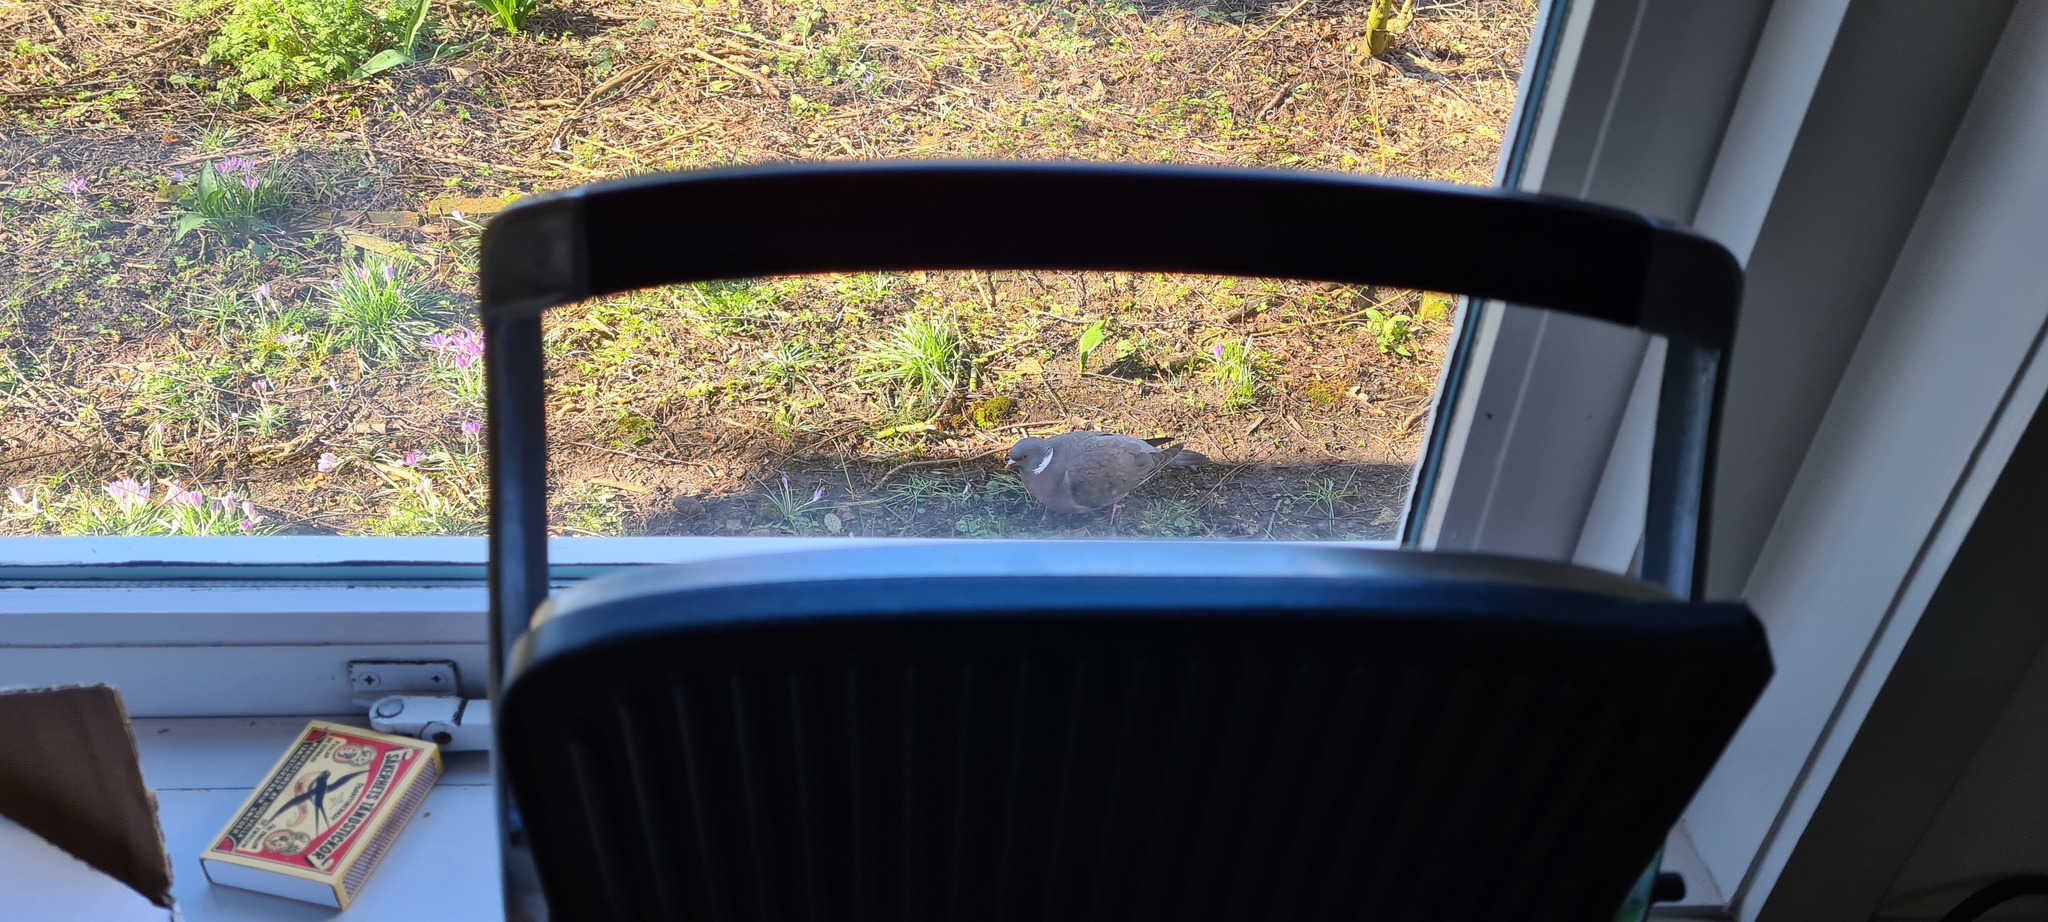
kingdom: Animalia
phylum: Chordata
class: Aves
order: Columbiformes
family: Columbidae
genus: Columba
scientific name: Columba palumbus
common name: Common wood pigeon
